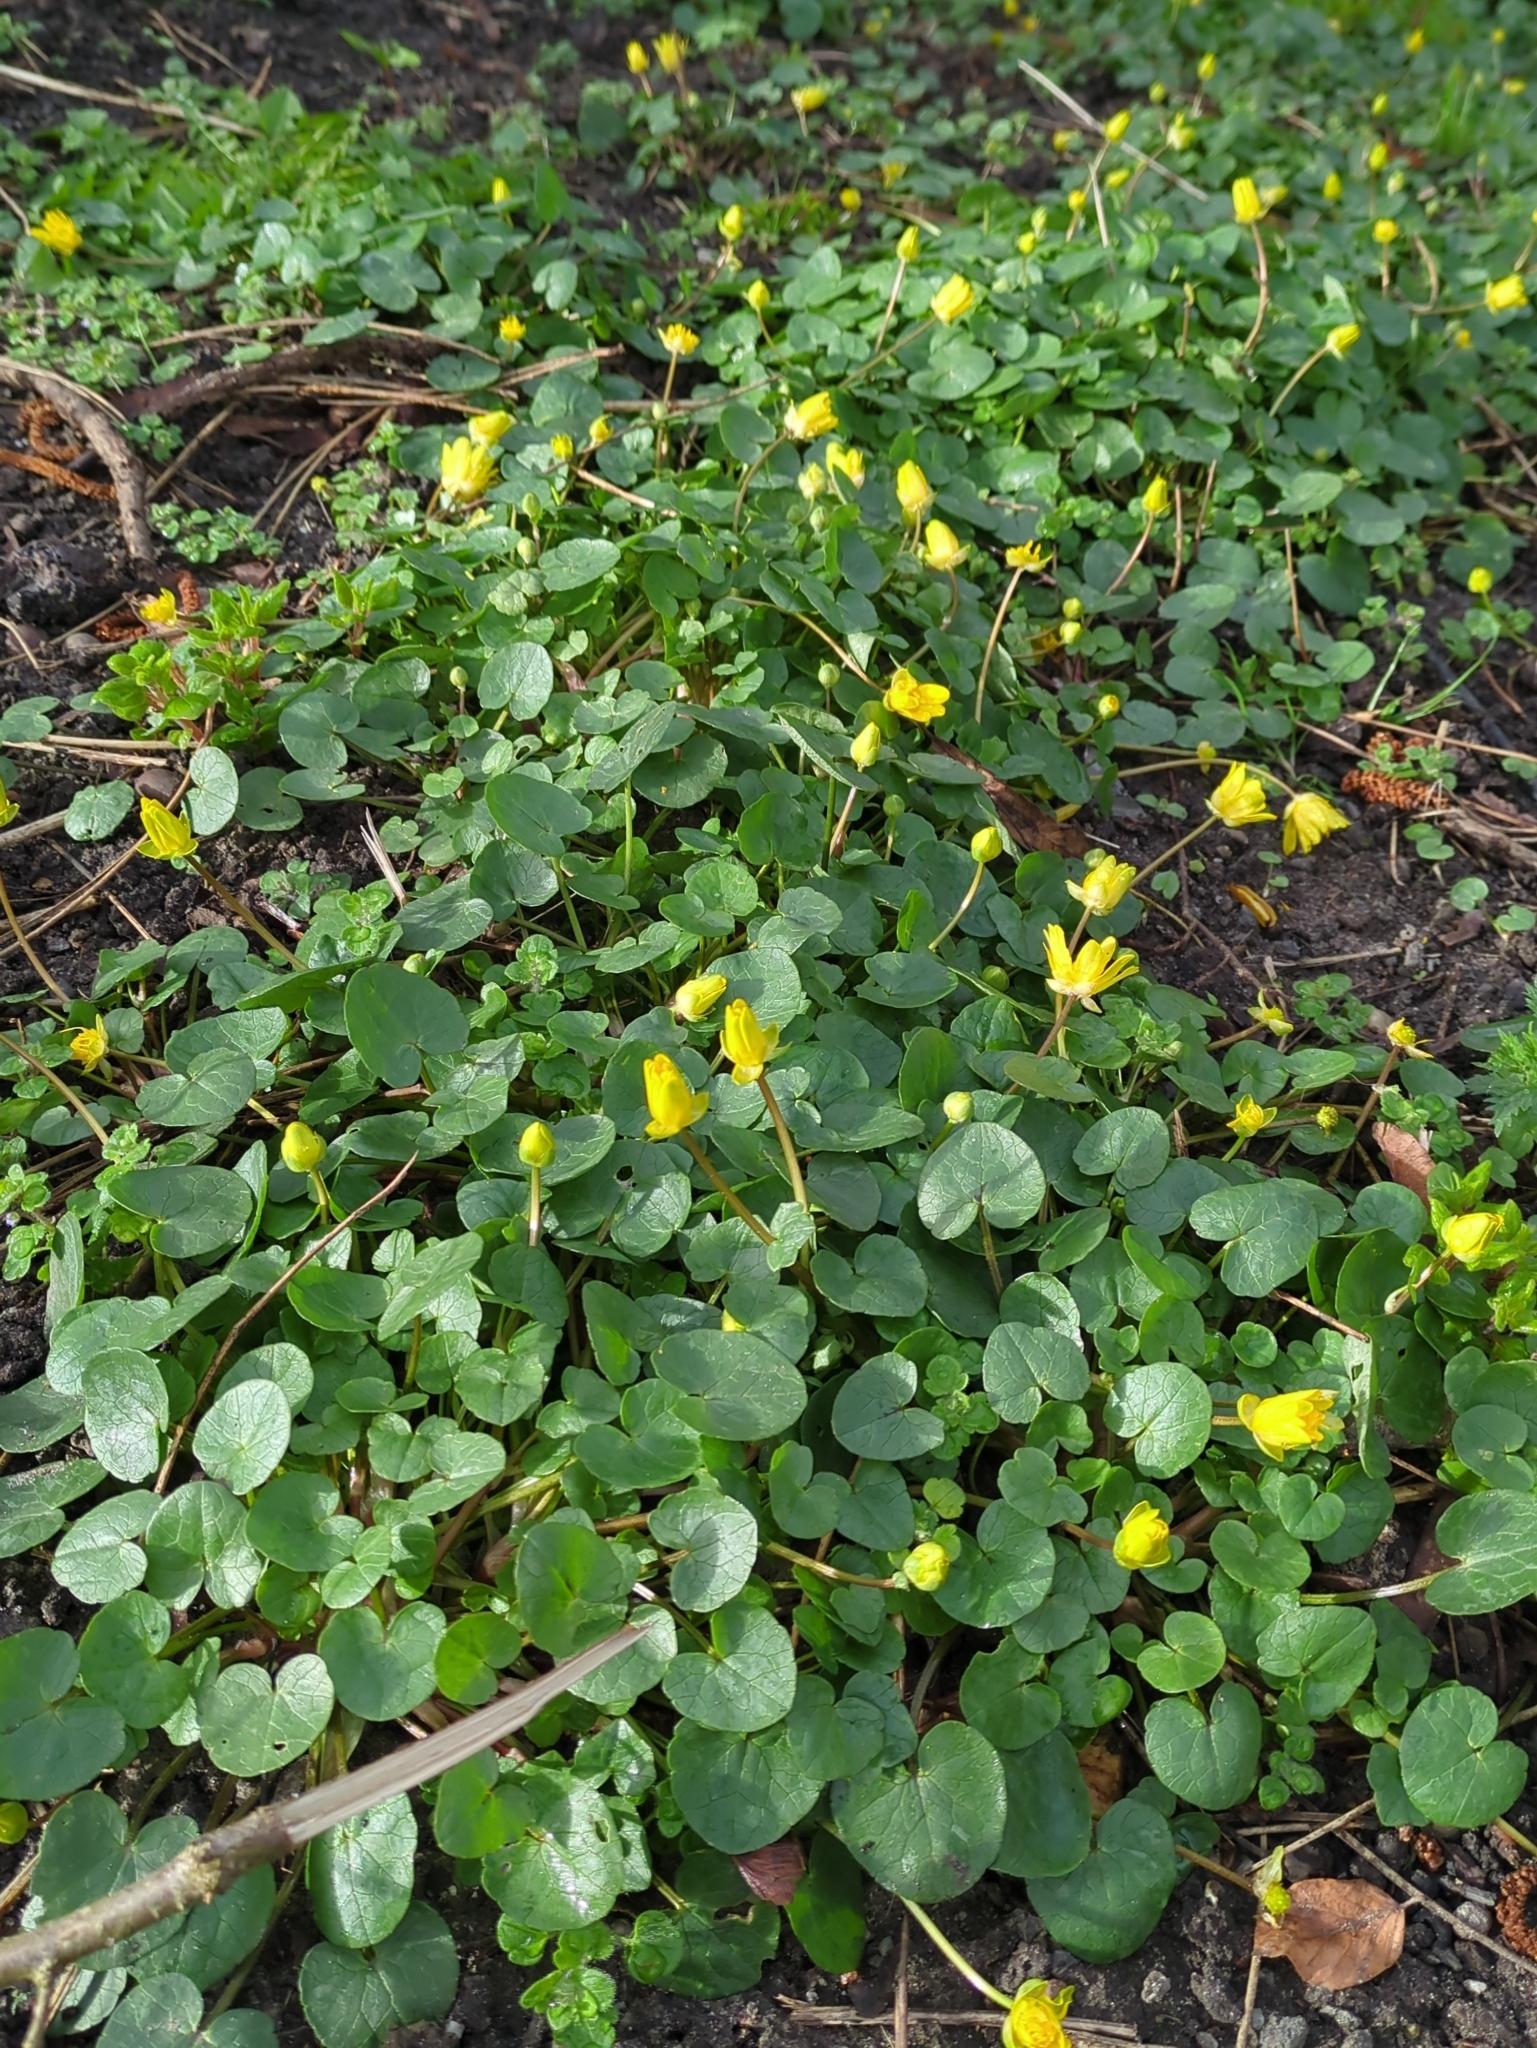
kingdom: Plantae
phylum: Tracheophyta
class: Magnoliopsida
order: Ranunculales
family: Ranunculaceae
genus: Ficaria
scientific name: Ficaria verna
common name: Lesser celandine
